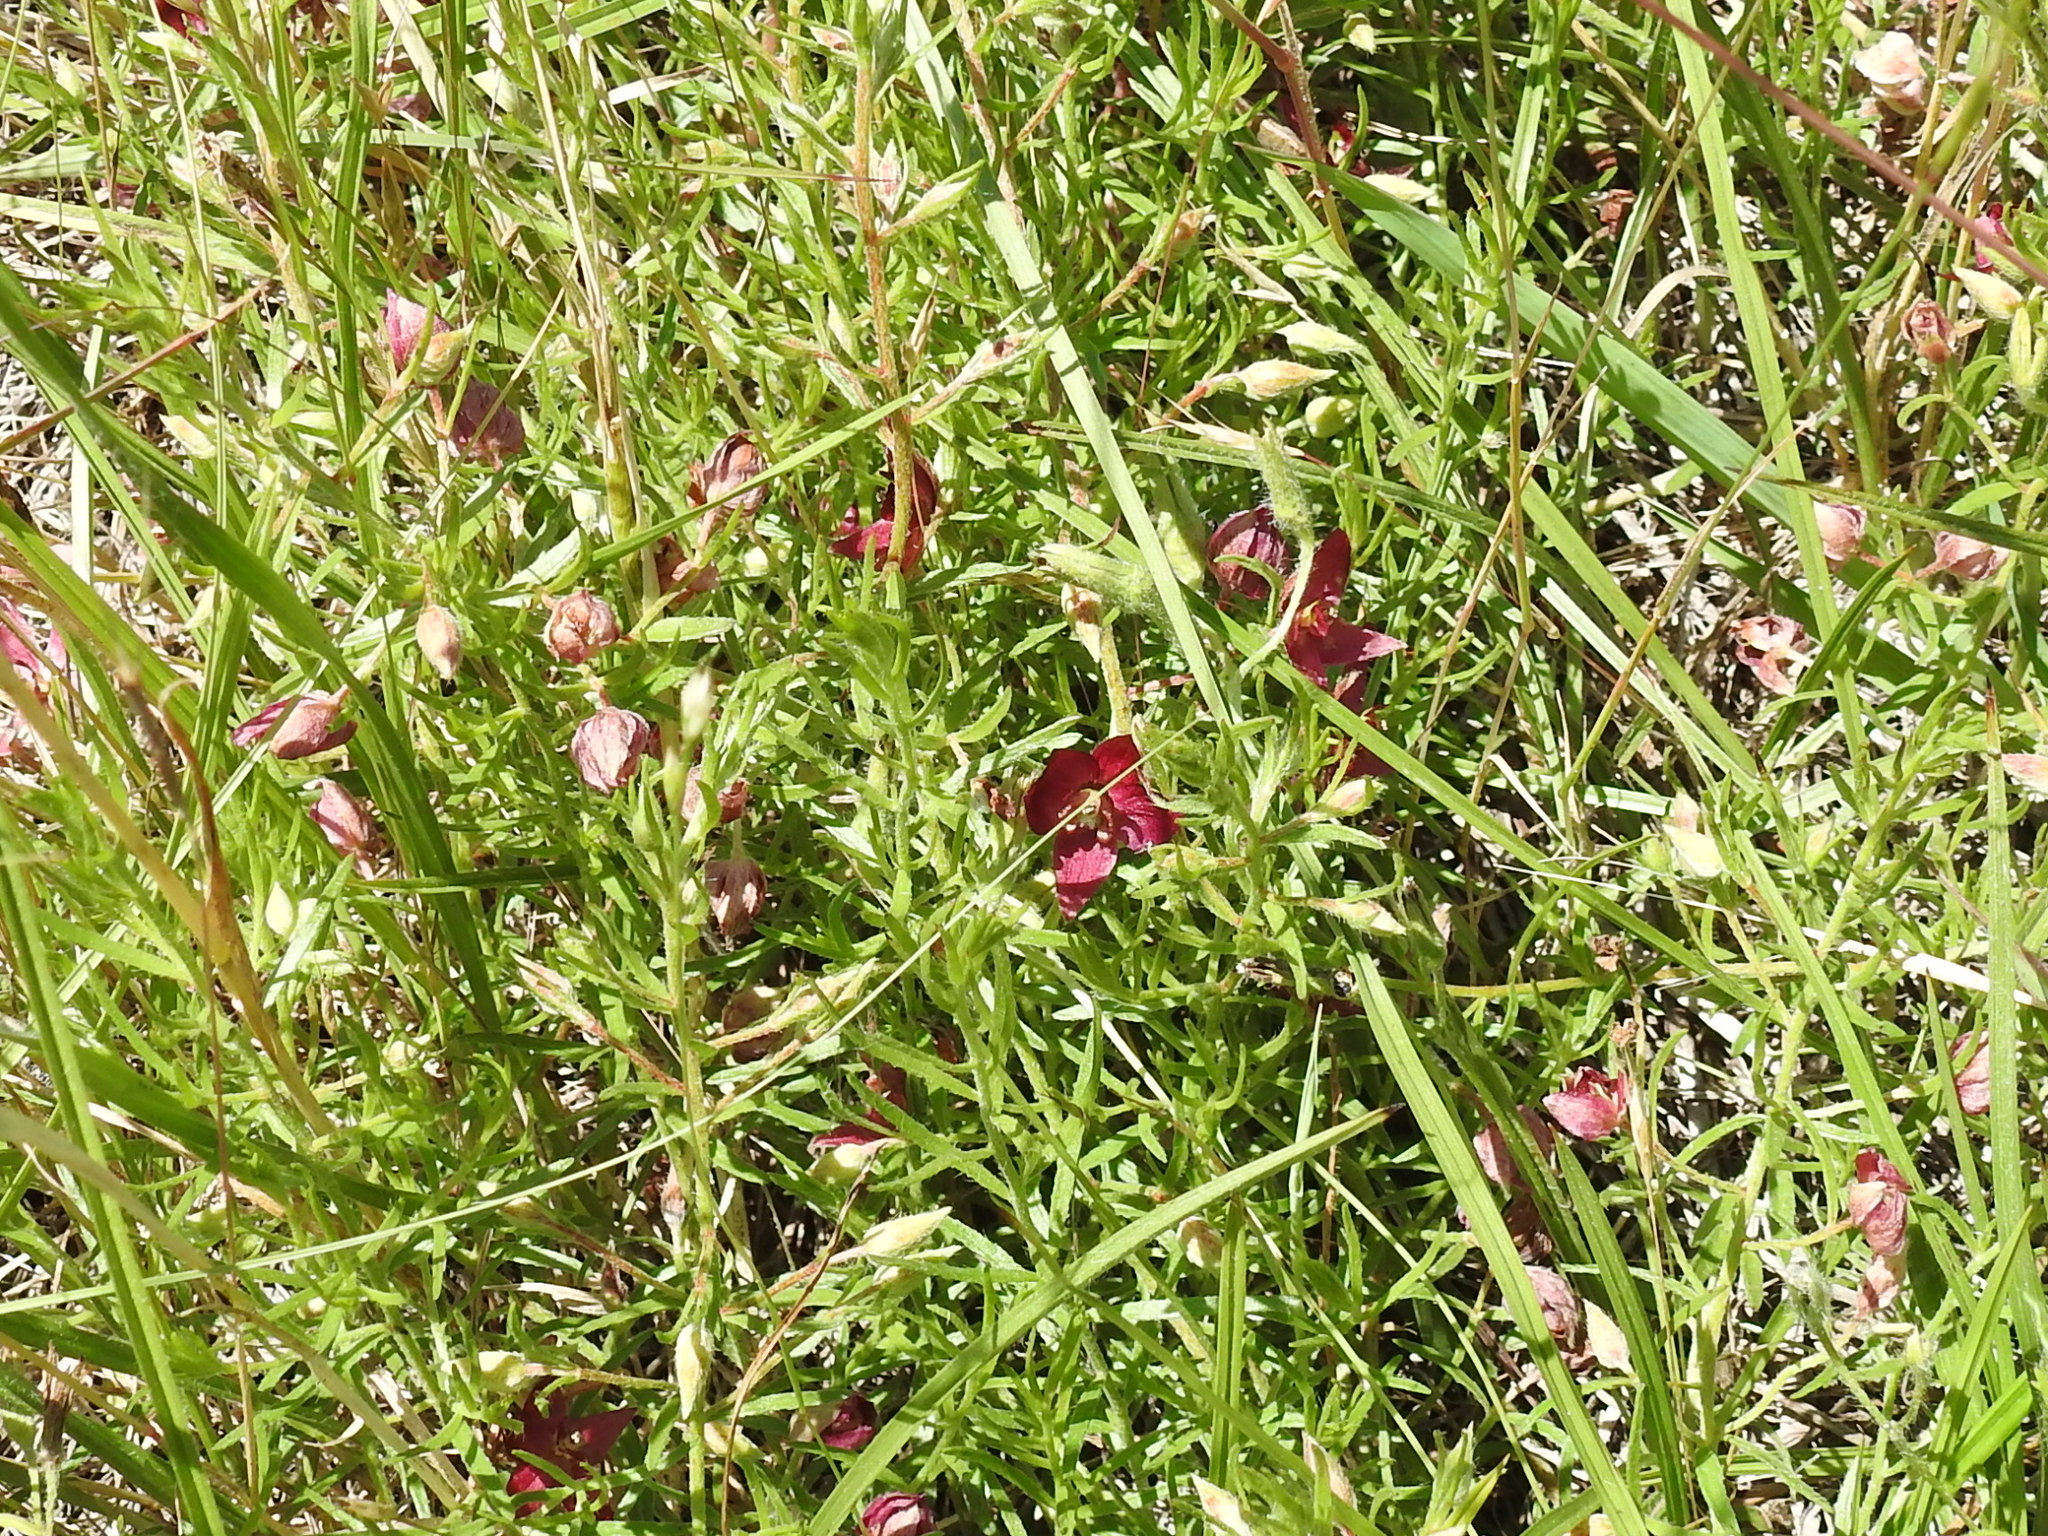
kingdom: Plantae
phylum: Tracheophyta
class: Magnoliopsida
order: Zygophyllales
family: Krameriaceae
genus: Krameria
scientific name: Krameria lanceolata
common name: Ratany
